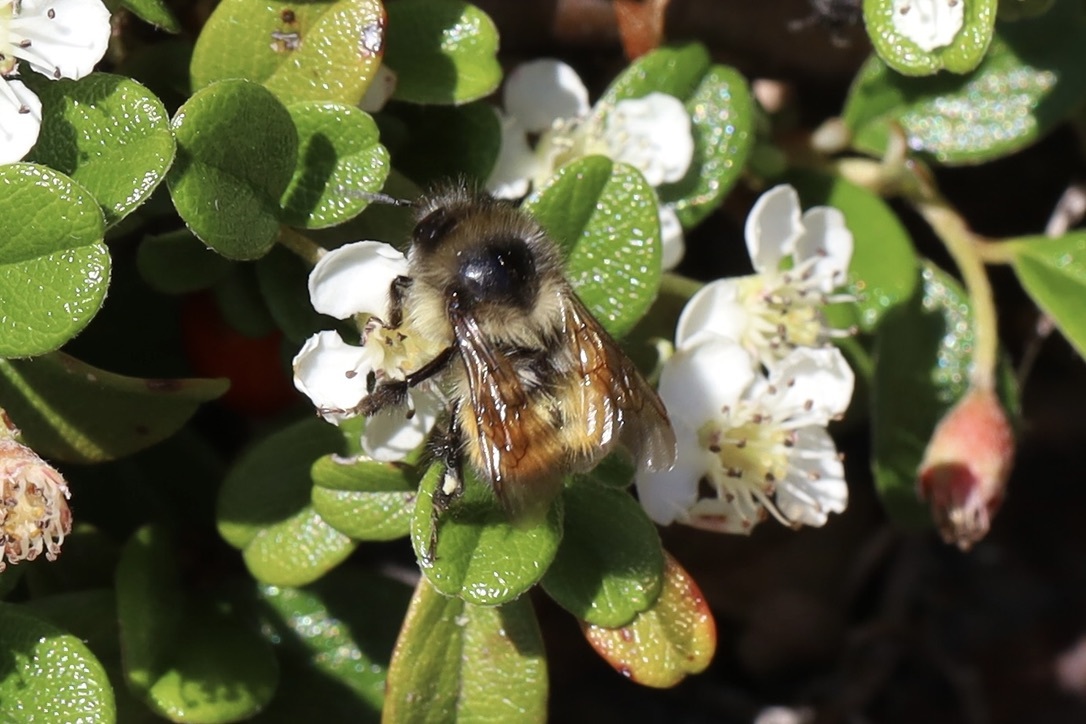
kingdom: Animalia
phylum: Arthropoda
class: Insecta
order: Hymenoptera
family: Apidae
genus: Bombus
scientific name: Bombus melanopygus
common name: Black tail bumble bee
